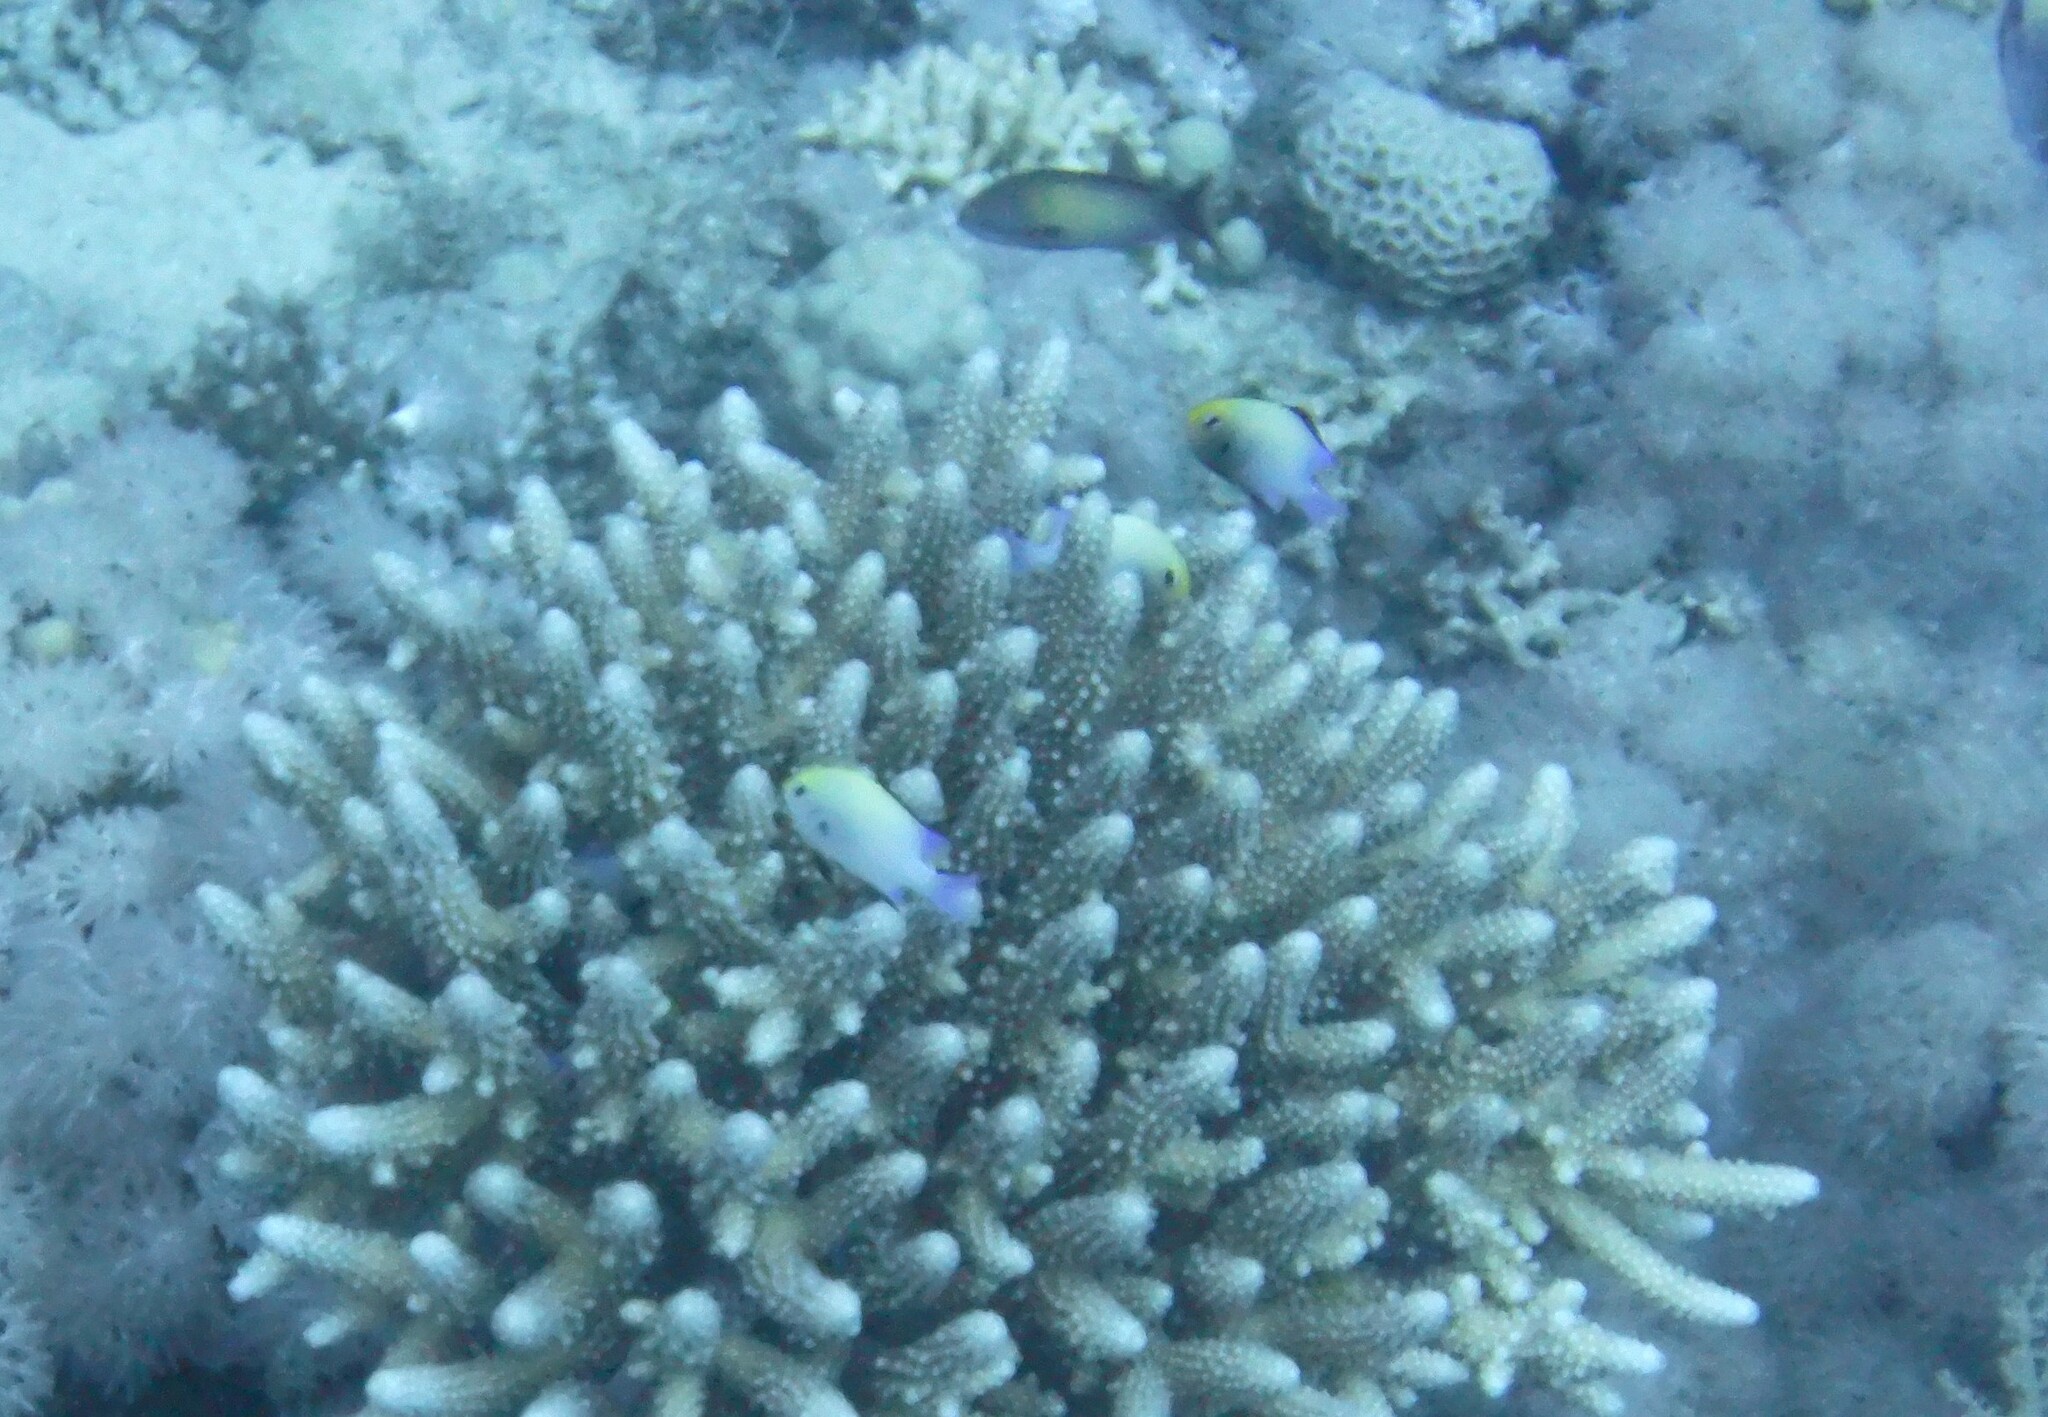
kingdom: Animalia
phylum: Chordata
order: Perciformes
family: Pomacentridae
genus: Dascyllus
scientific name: Dascyllus marginatus
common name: Red sea dascyllus
